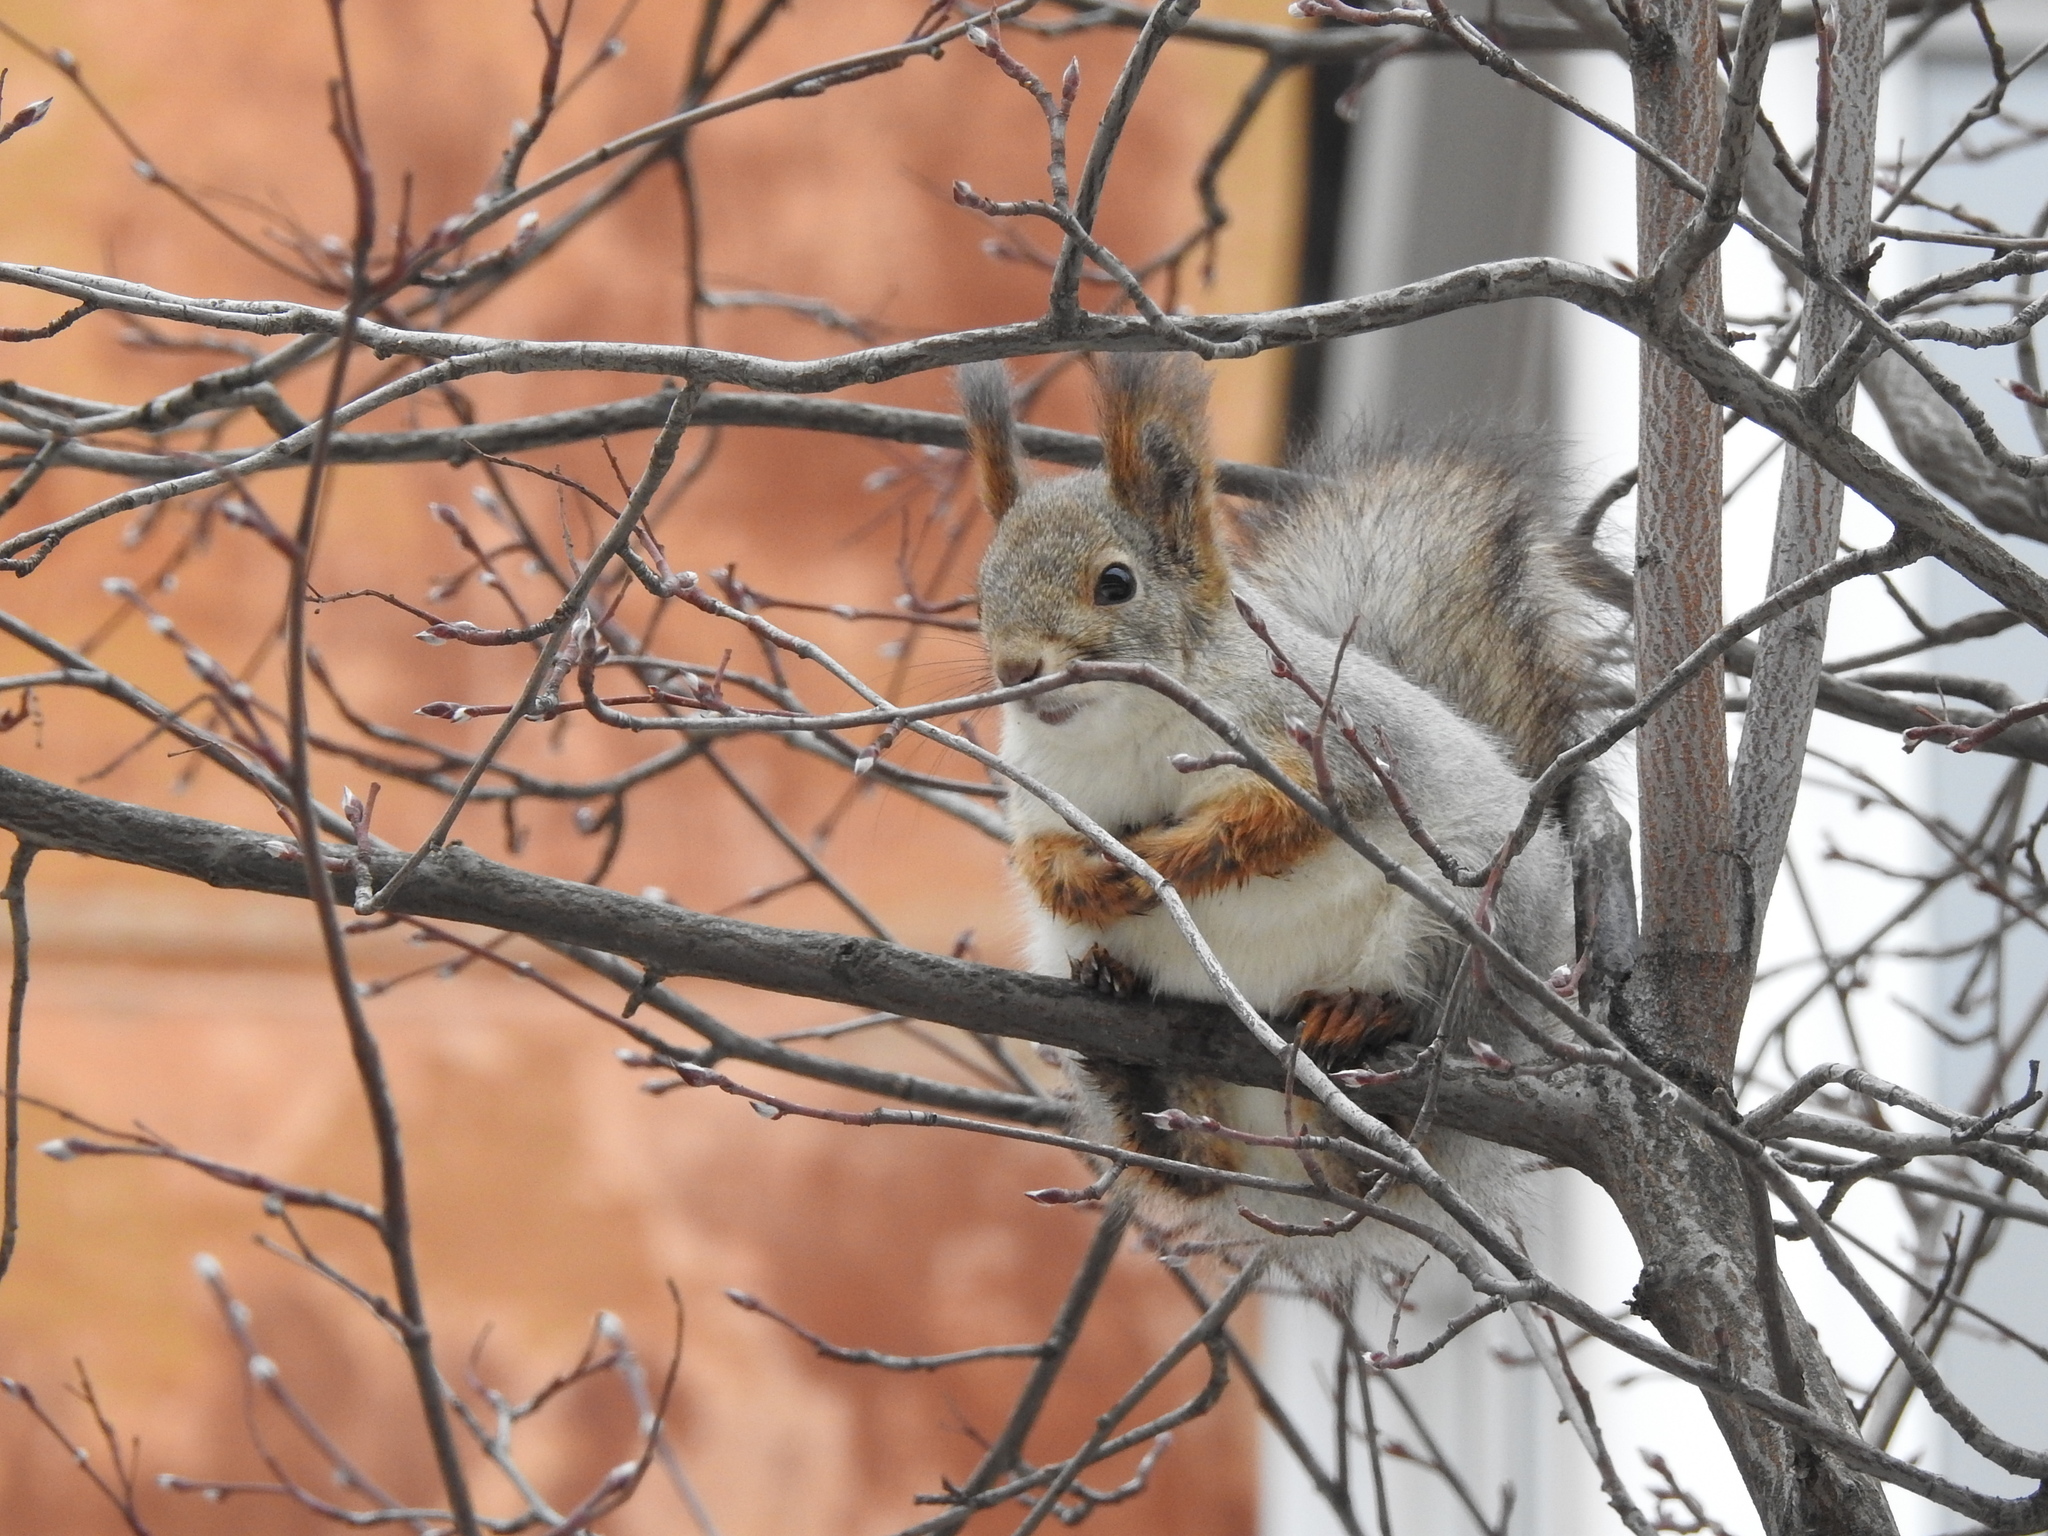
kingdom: Animalia
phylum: Chordata
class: Mammalia
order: Rodentia
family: Sciuridae
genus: Sciurus
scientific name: Sciurus vulgaris
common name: Eurasian red squirrel
